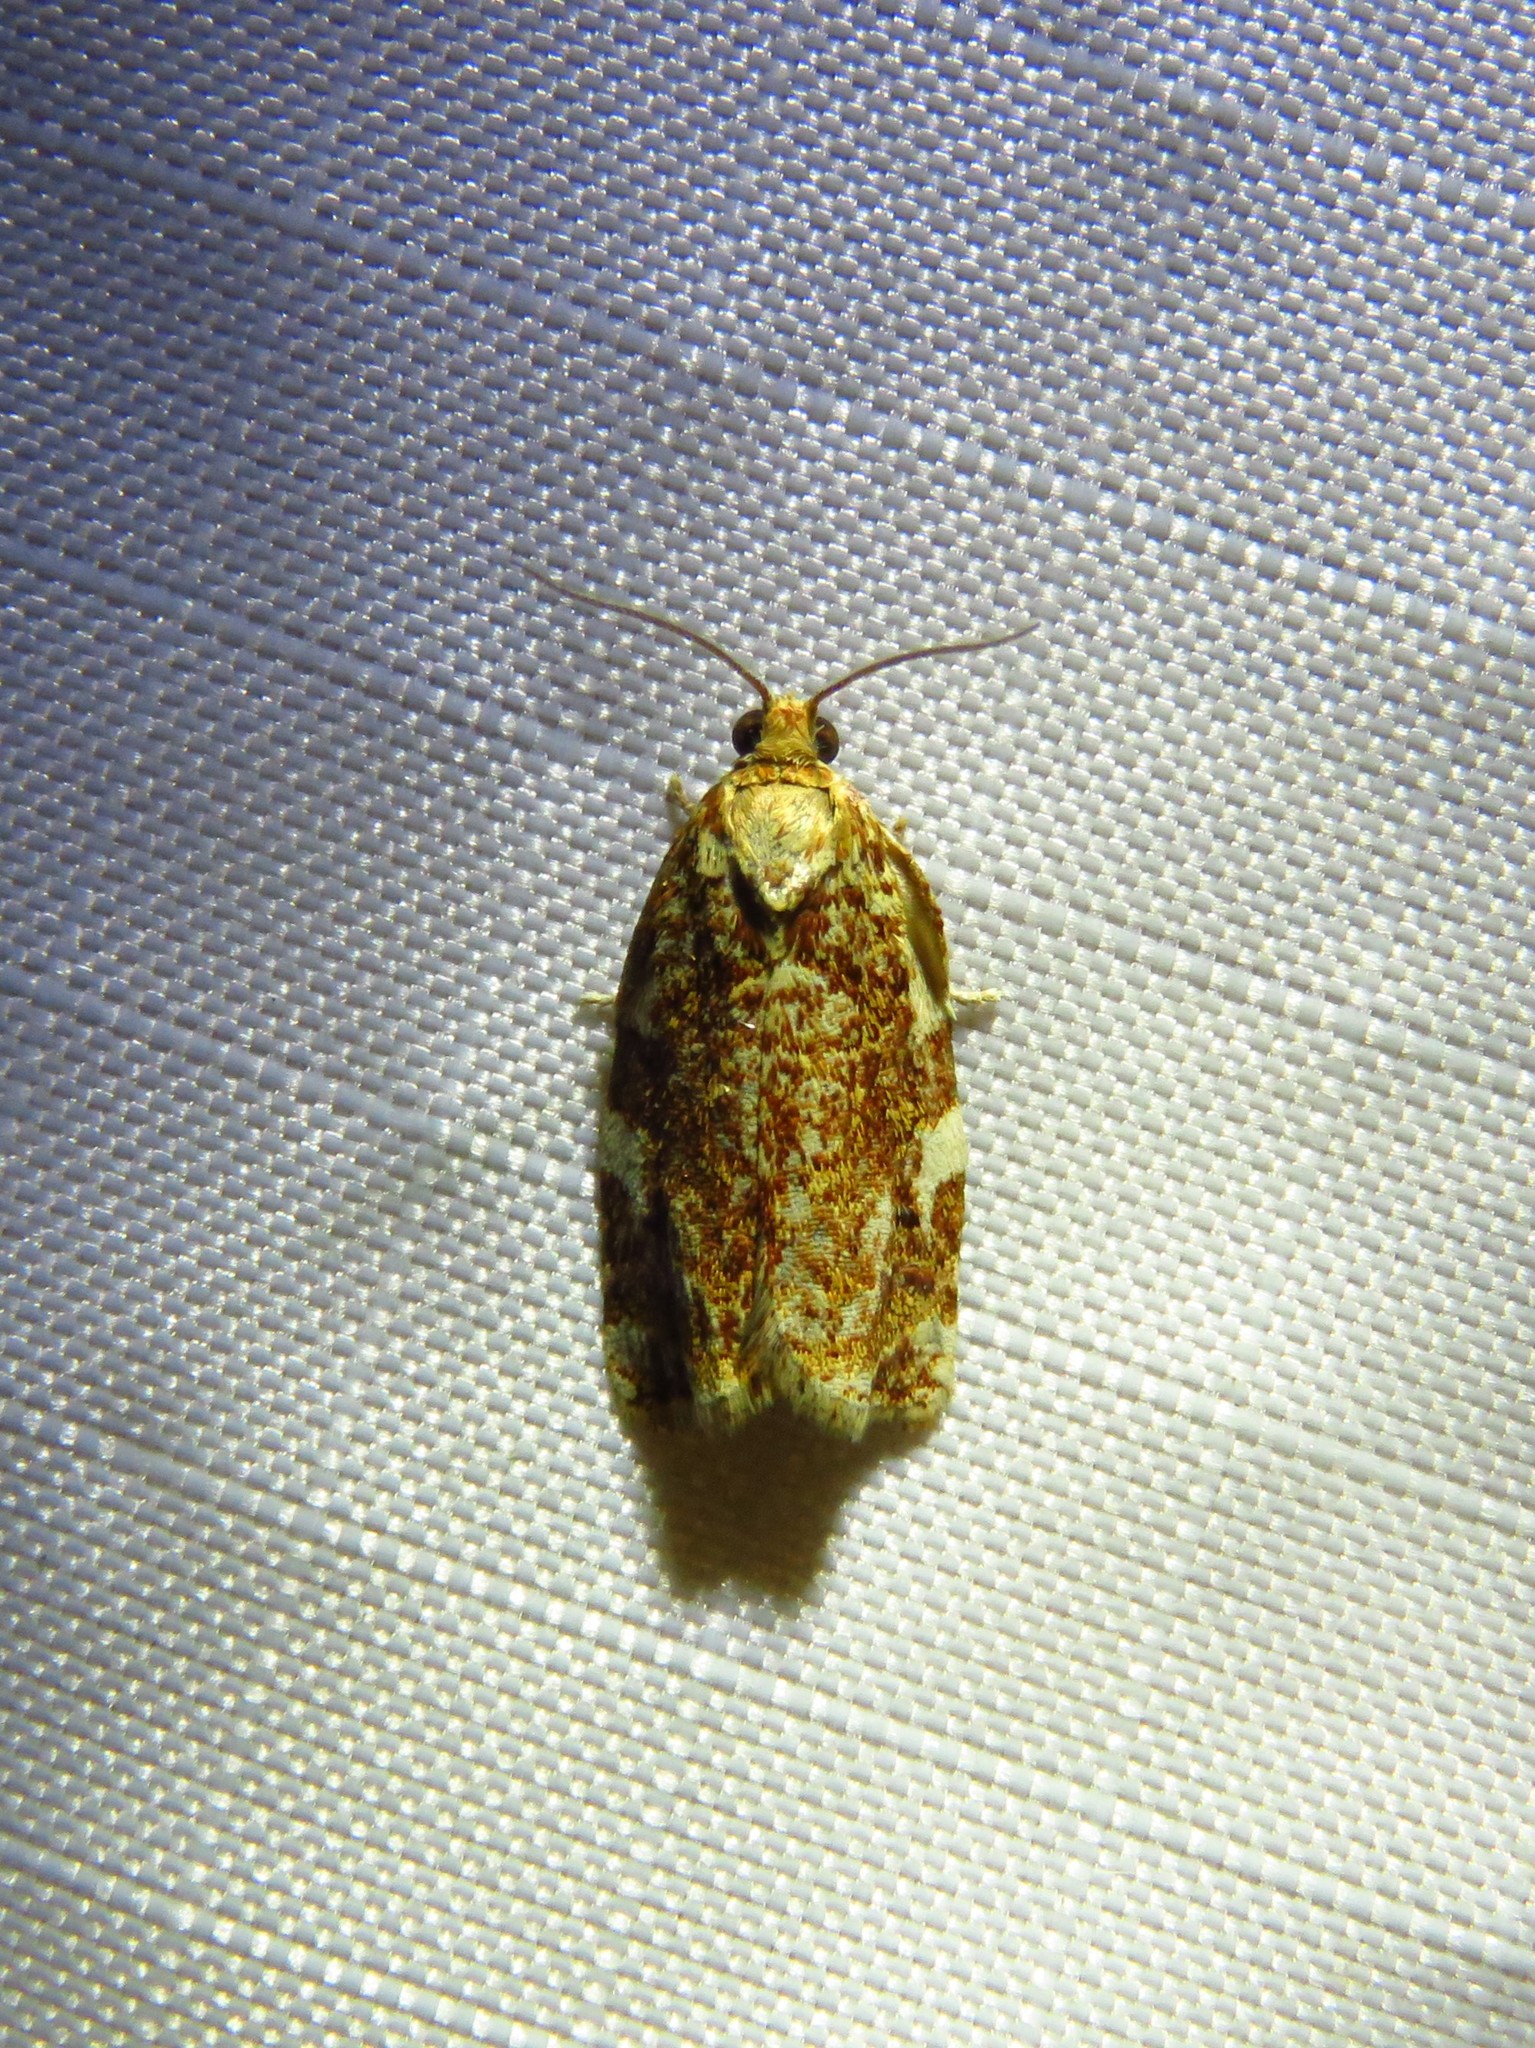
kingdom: Animalia
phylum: Arthropoda
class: Insecta
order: Lepidoptera
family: Tortricidae
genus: Archips
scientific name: Archips argyrospila
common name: Fruit-tree leafroller moth
